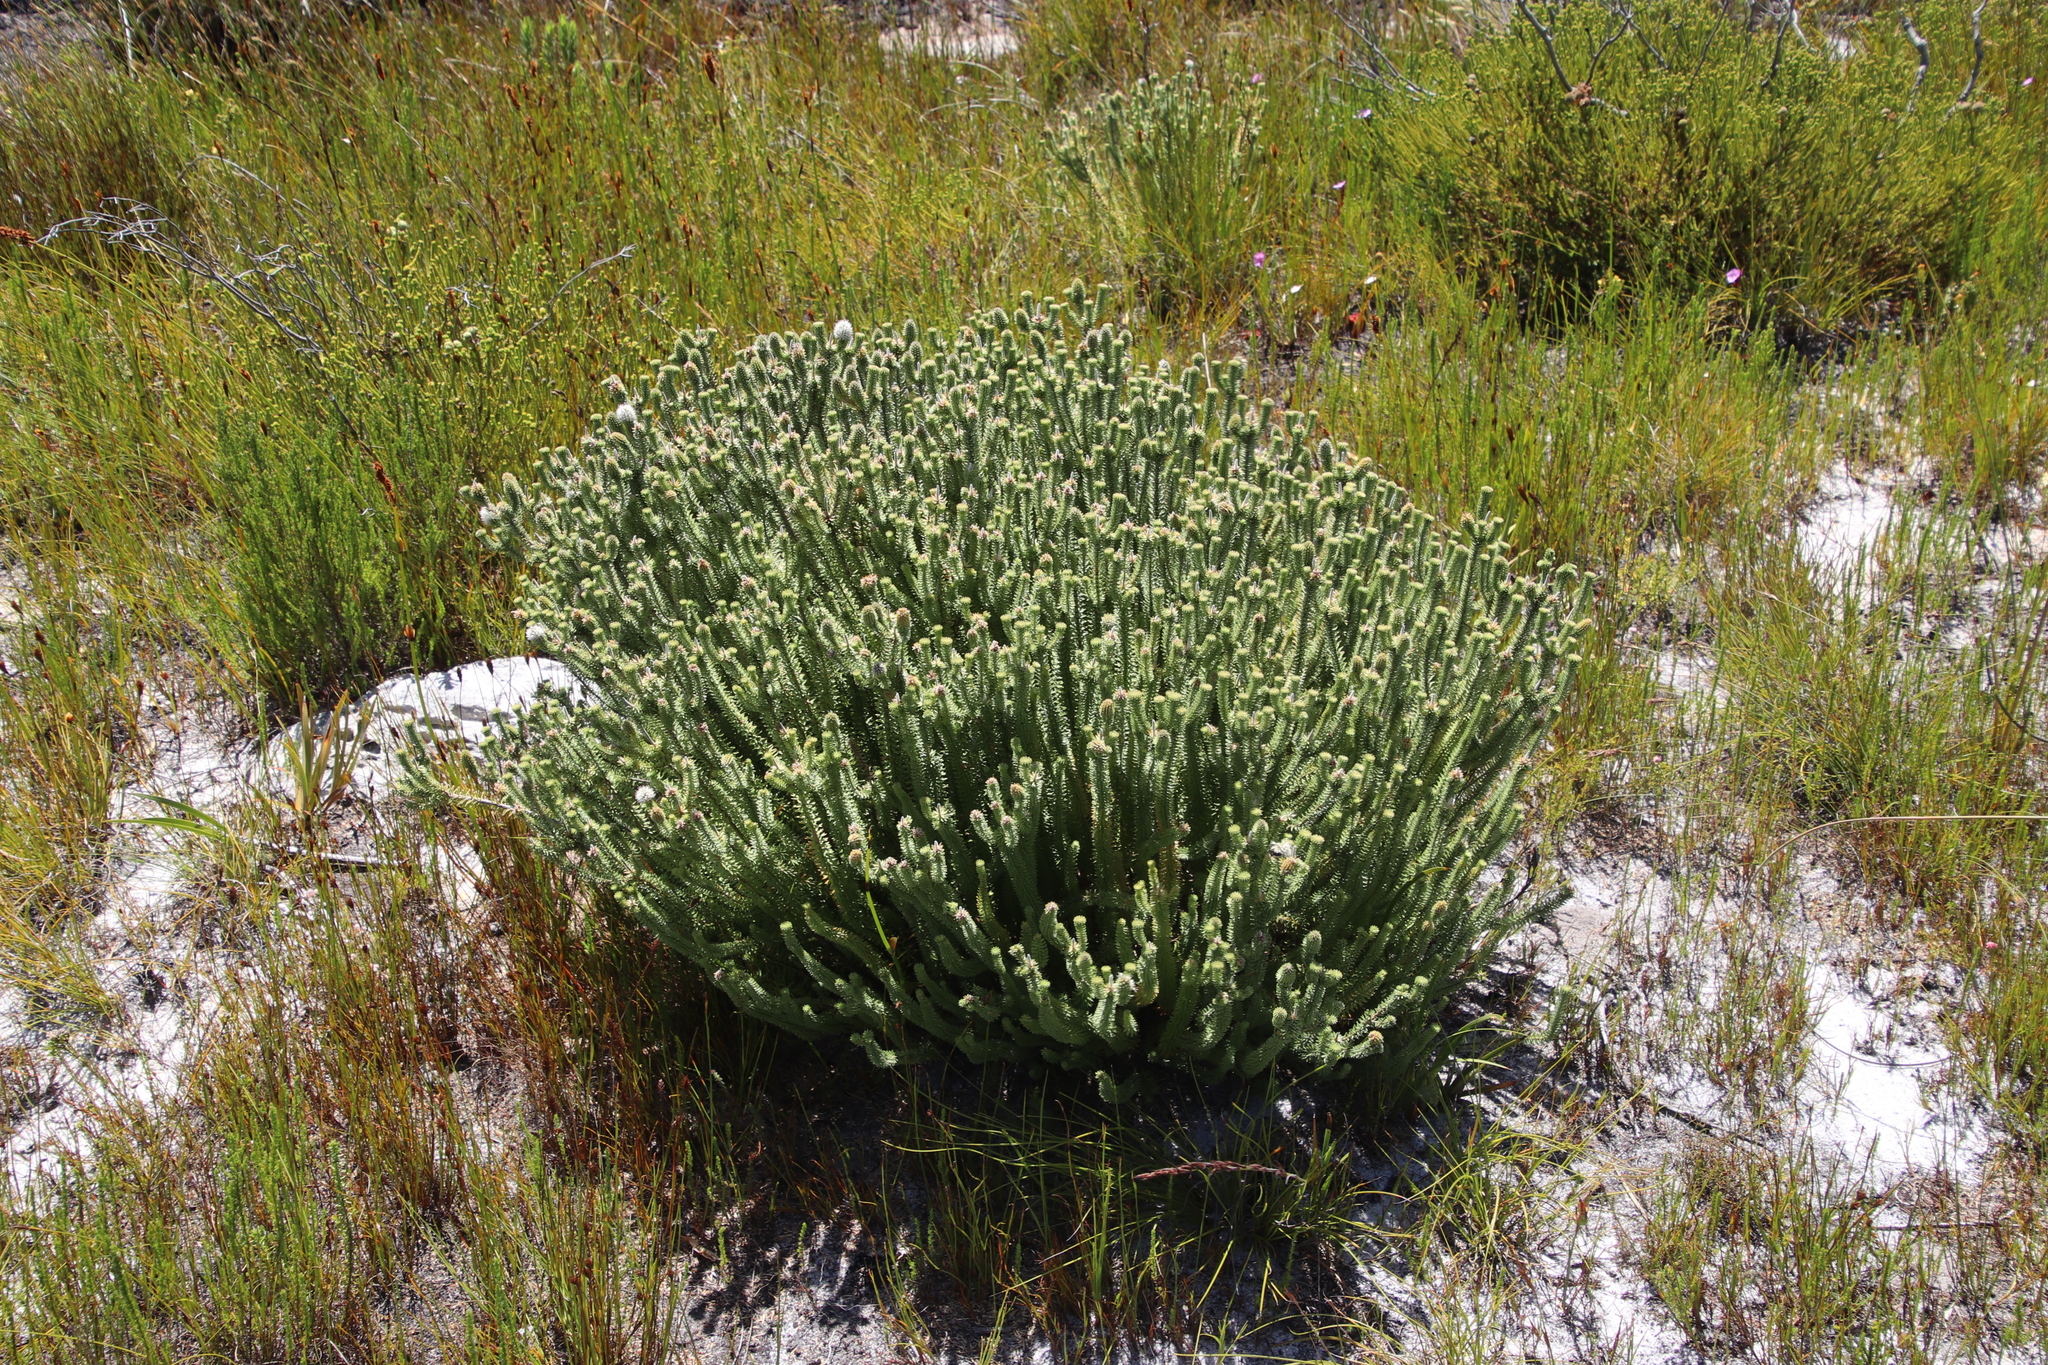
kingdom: Plantae
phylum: Tracheophyta
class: Magnoliopsida
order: Lamiales
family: Stilbaceae
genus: Stilbe
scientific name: Stilbe vestita
